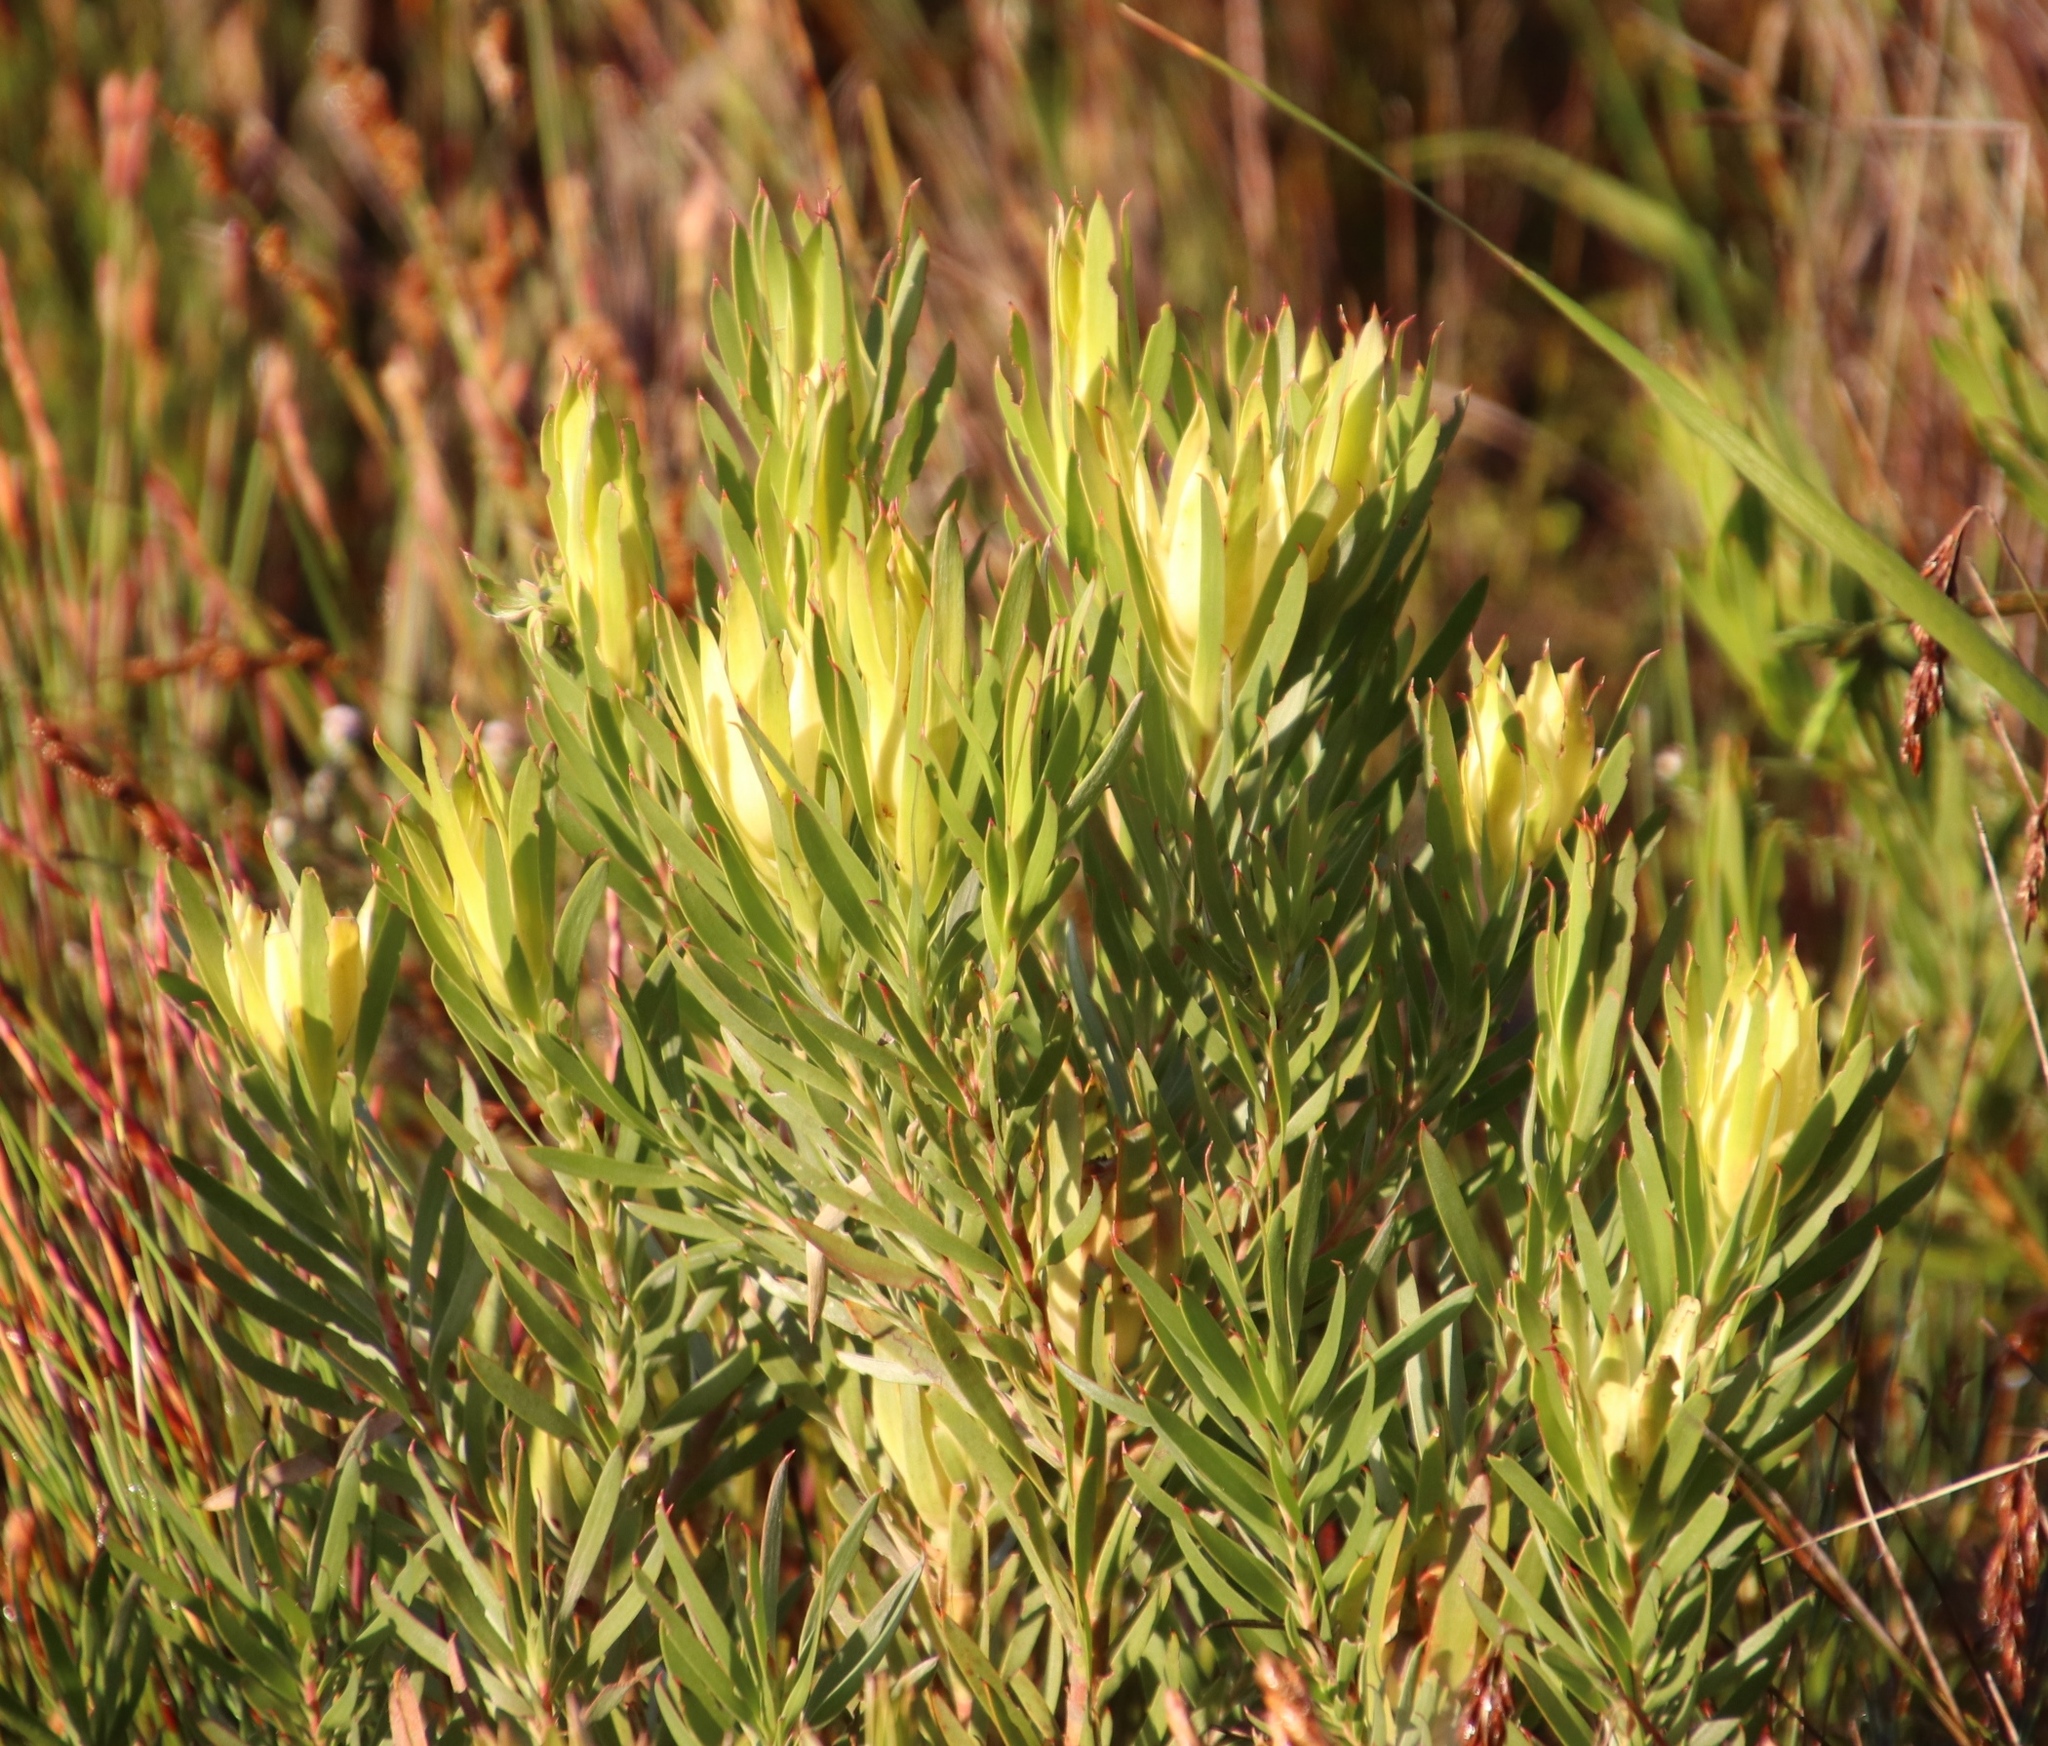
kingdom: Plantae
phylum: Tracheophyta
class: Magnoliopsida
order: Proteales
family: Proteaceae
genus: Leucadendron
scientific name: Leucadendron xanthoconus
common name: Sickle-leaf conebush
